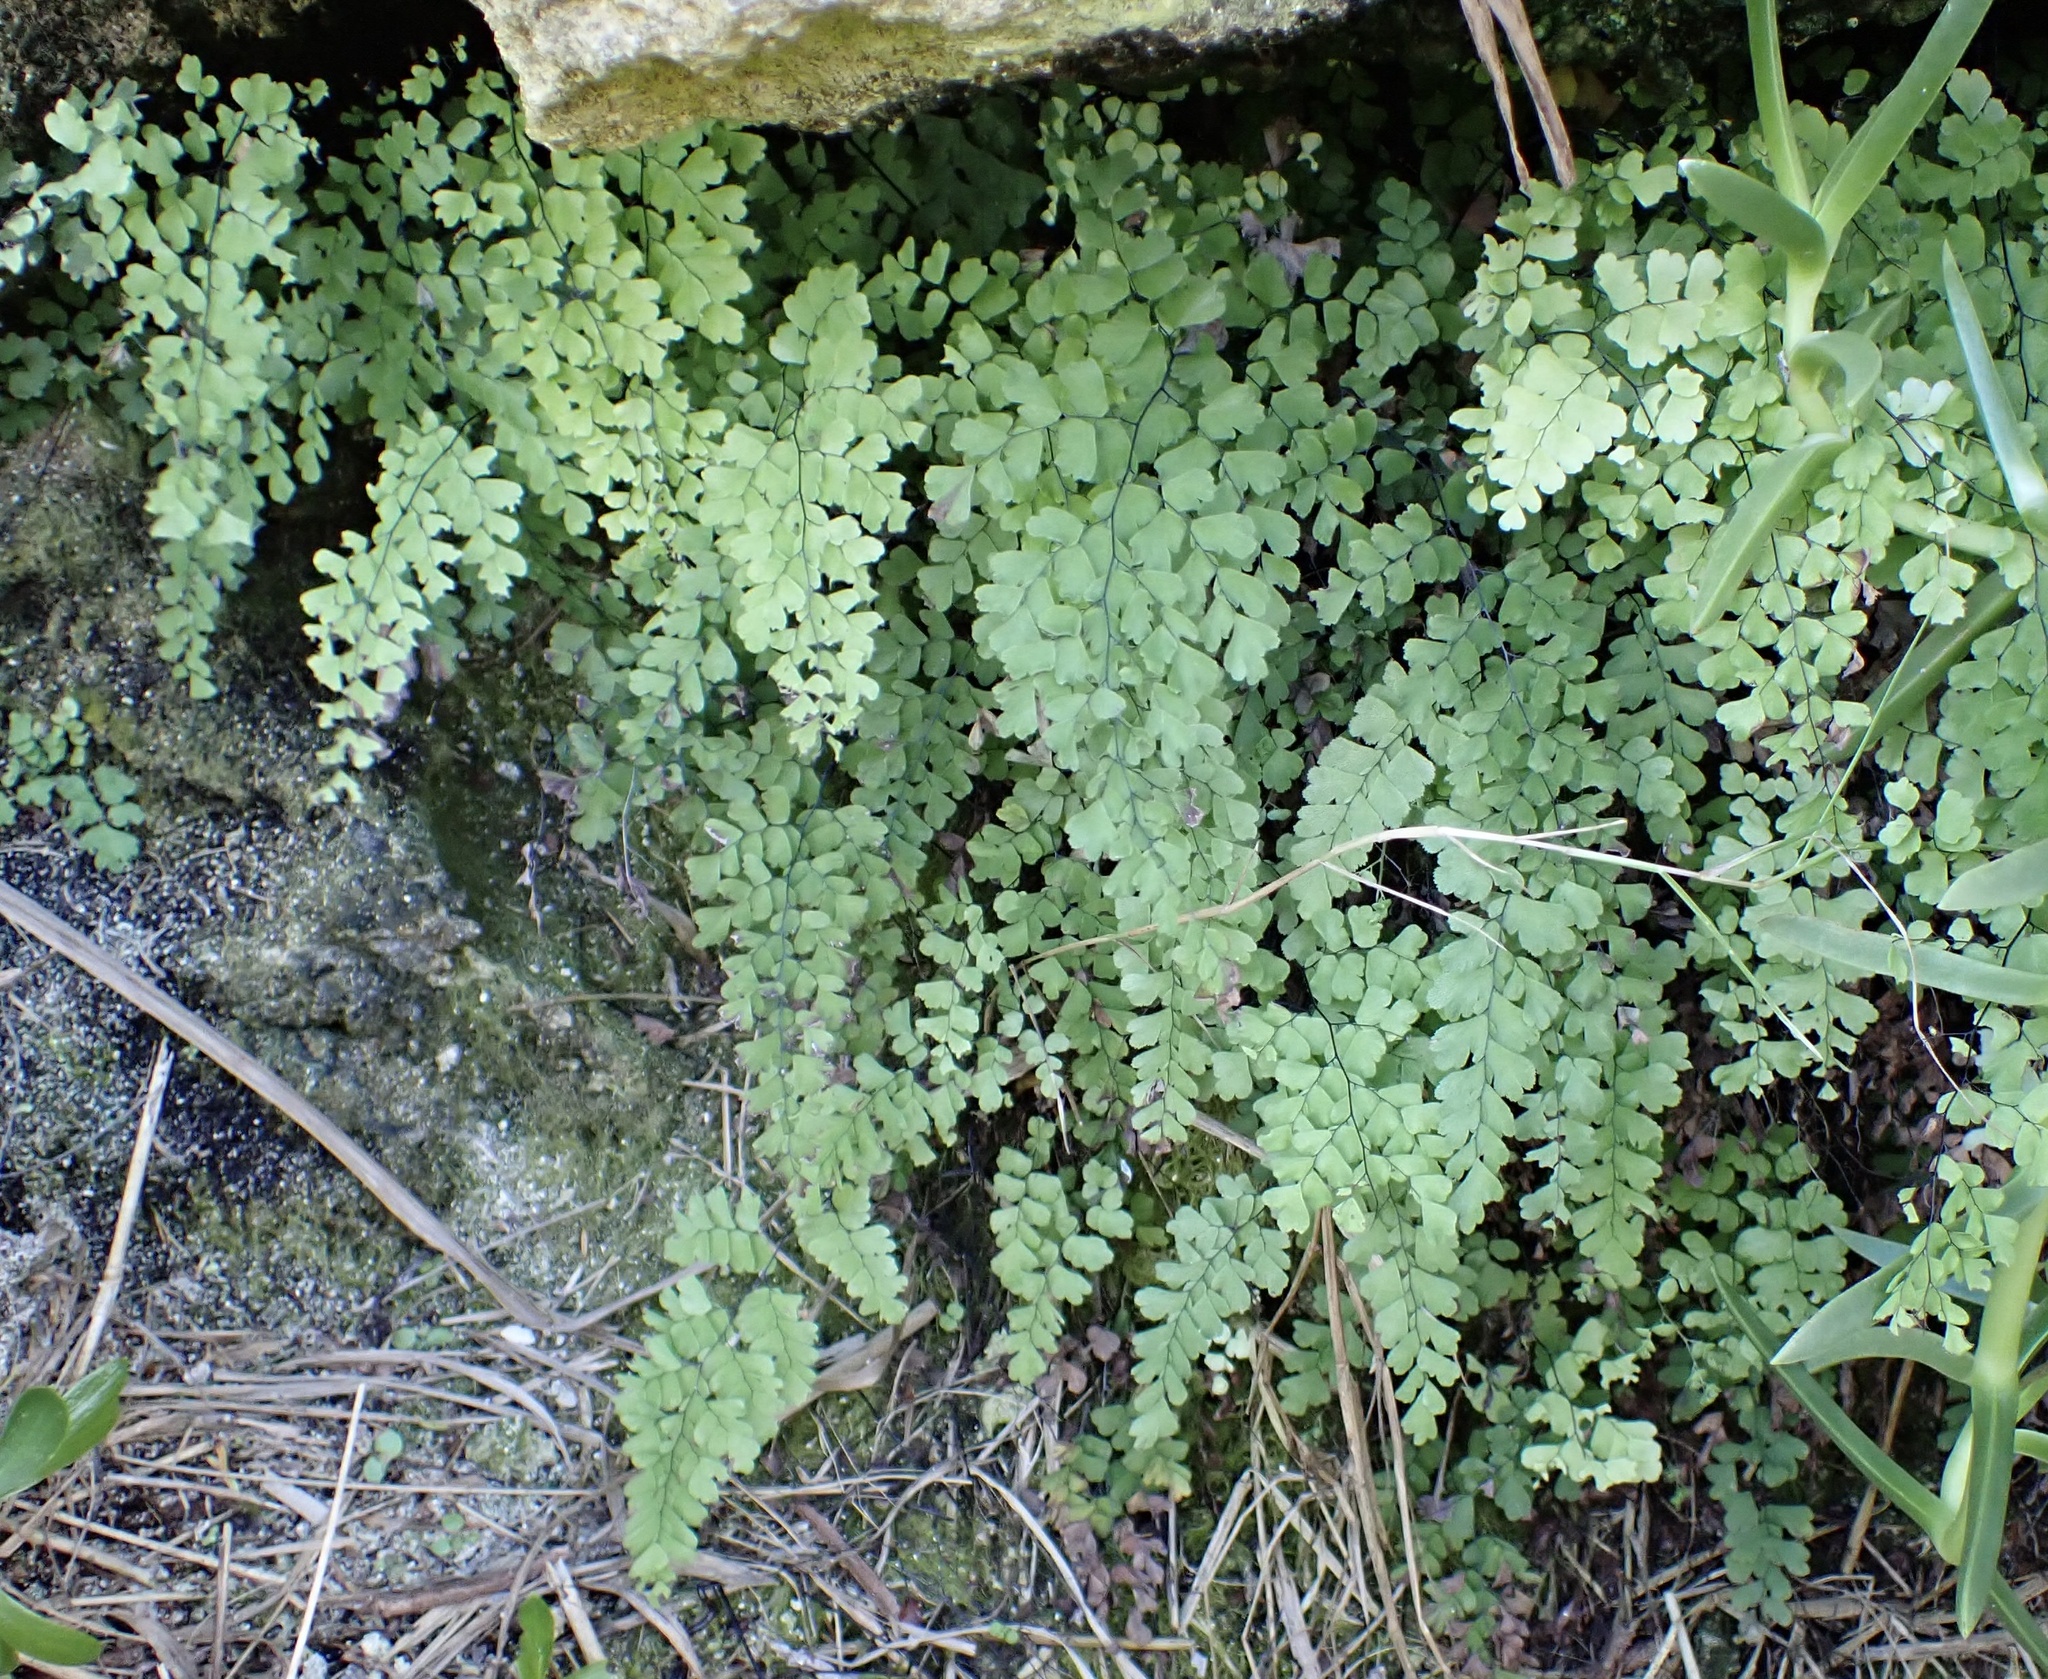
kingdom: Plantae
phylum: Tracheophyta
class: Polypodiopsida
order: Polypodiales
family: Pteridaceae
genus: Adiantum
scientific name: Adiantum bellum
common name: Bermuda maidenhair fern
